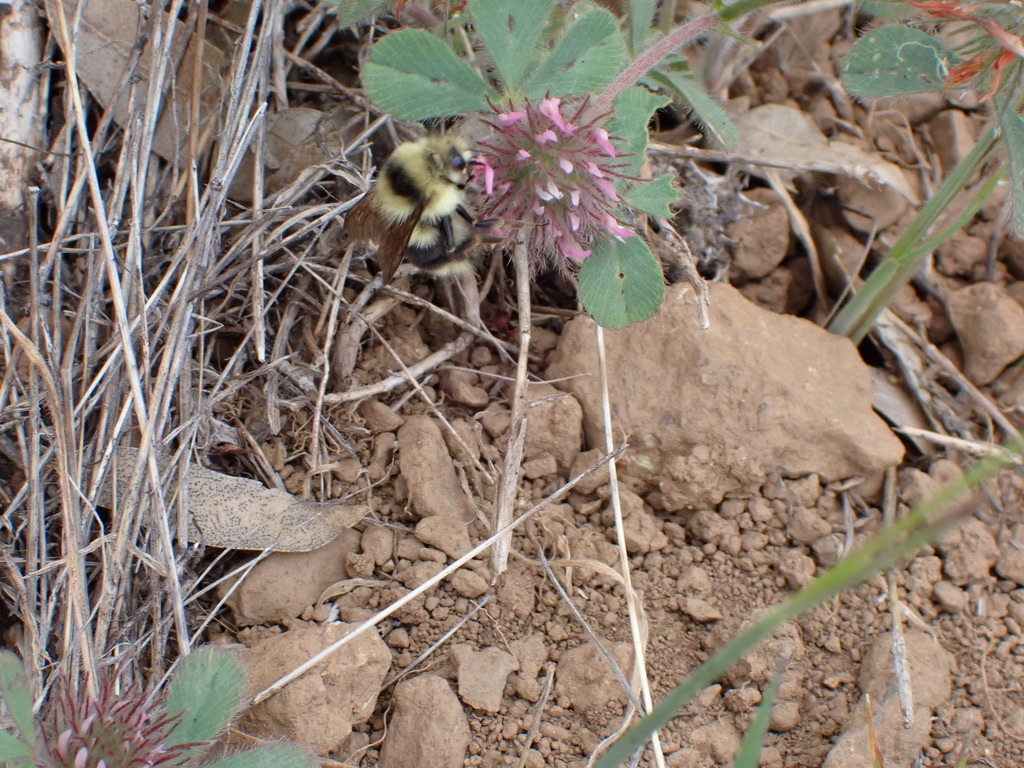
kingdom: Animalia
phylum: Arthropoda
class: Insecta
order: Hymenoptera
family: Apidae
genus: Bombus
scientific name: Bombus melanopygus
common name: Black tail bumble bee
